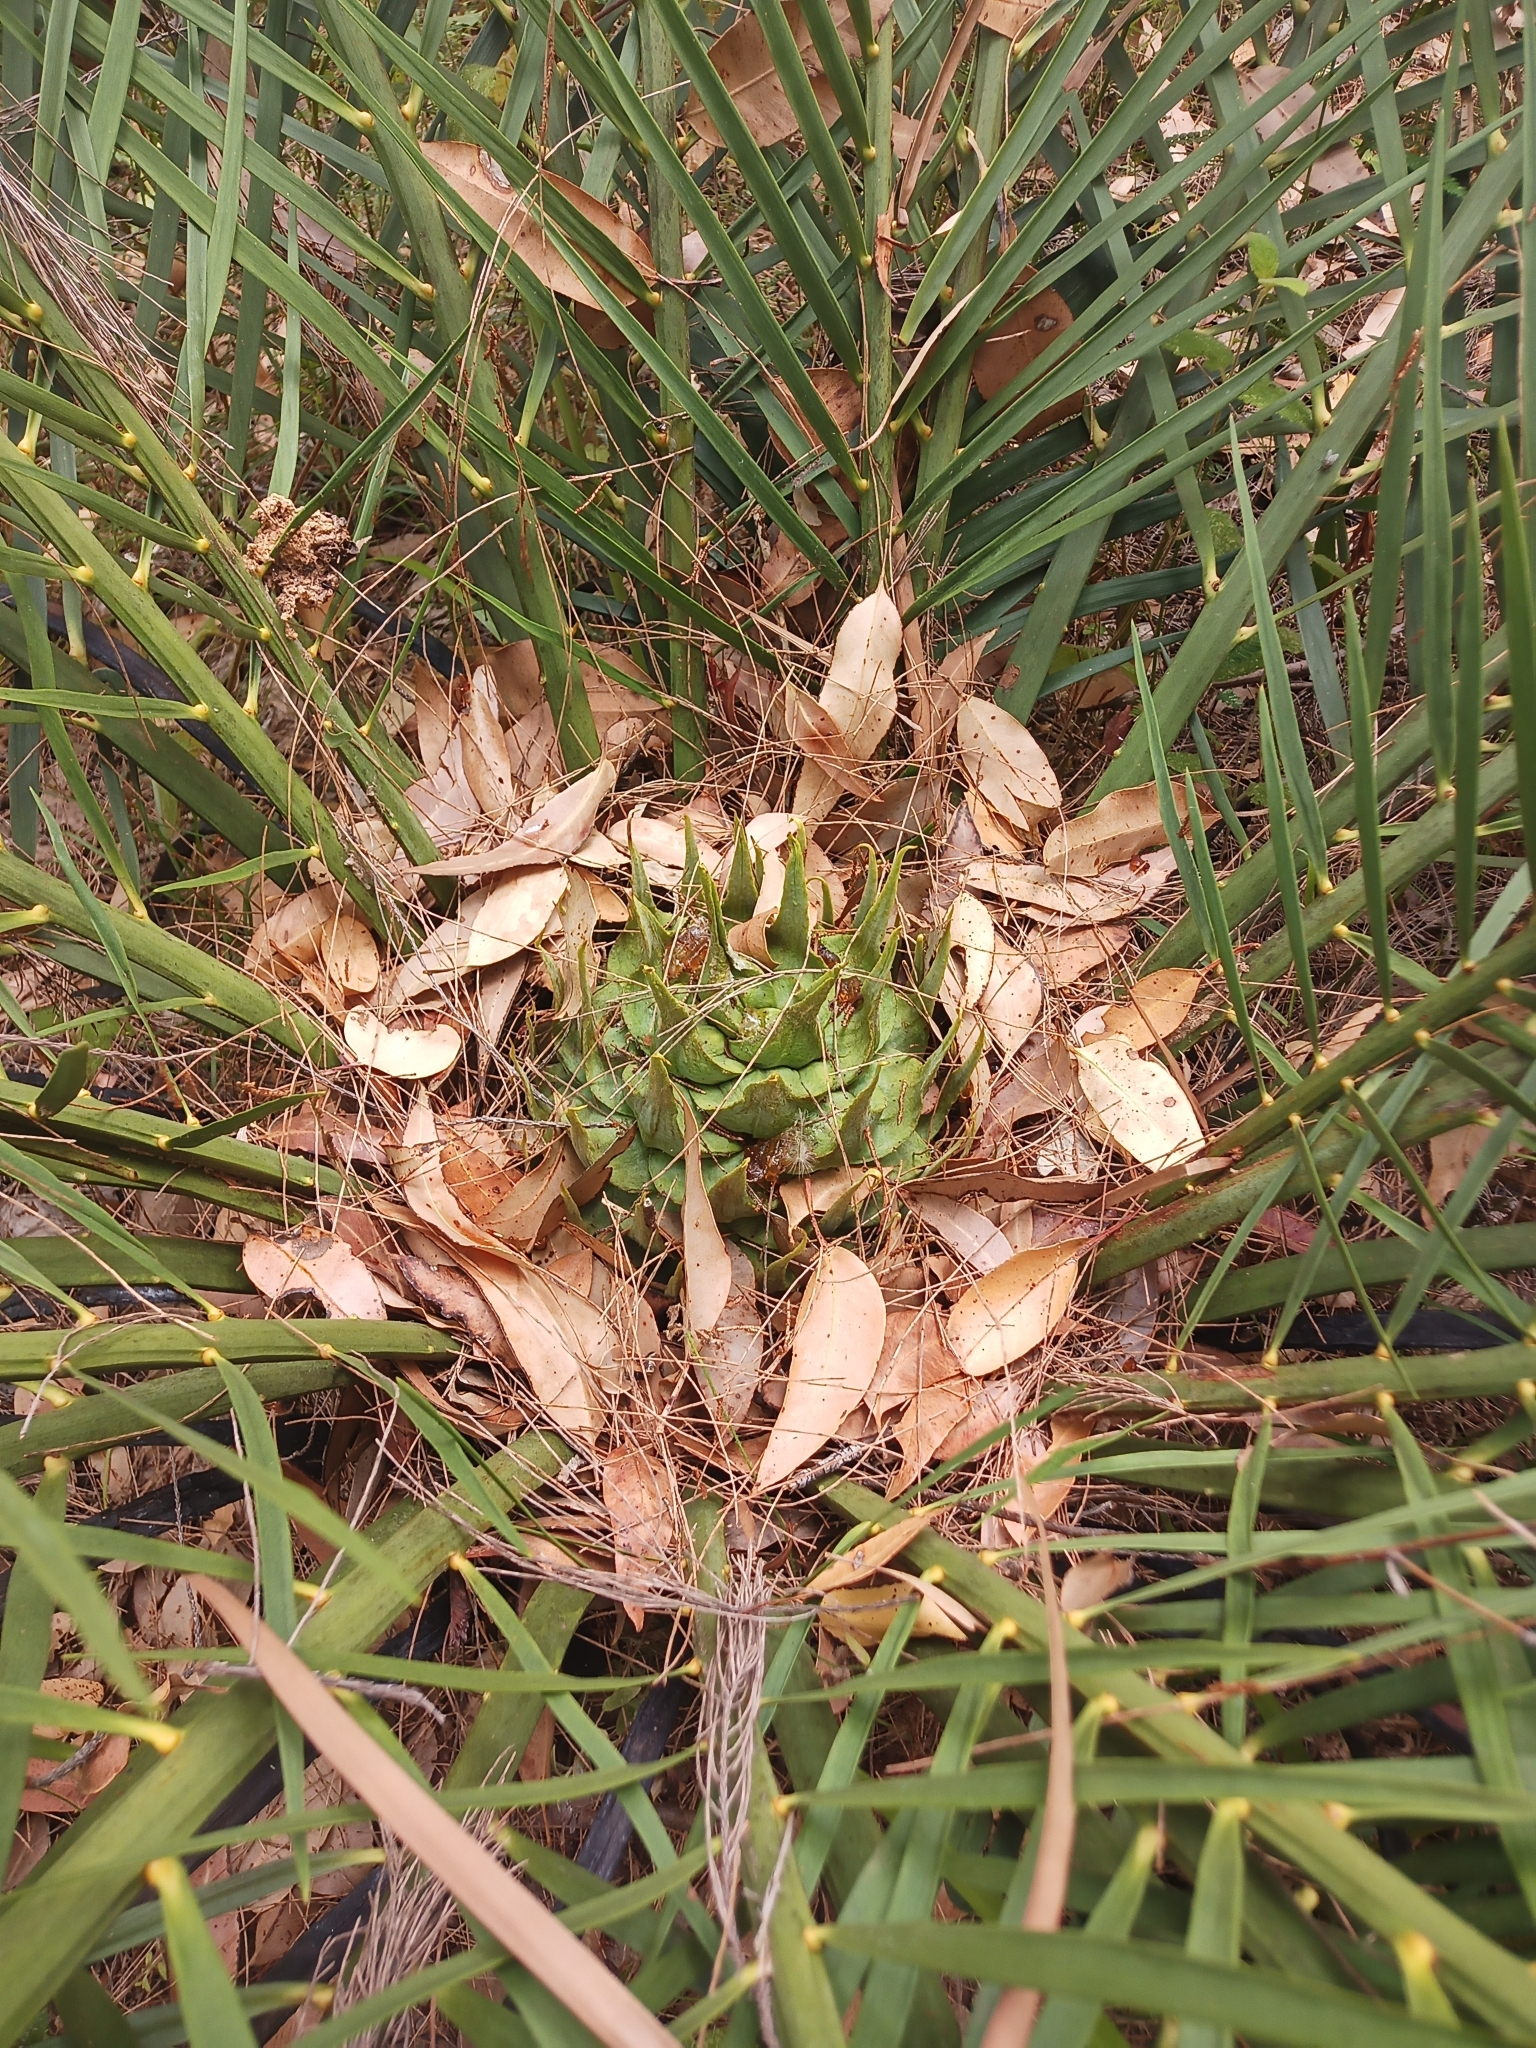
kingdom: Plantae
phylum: Tracheophyta
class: Cycadopsida
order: Cycadales
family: Zamiaceae
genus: Macrozamia
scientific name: Macrozamia riedlei
